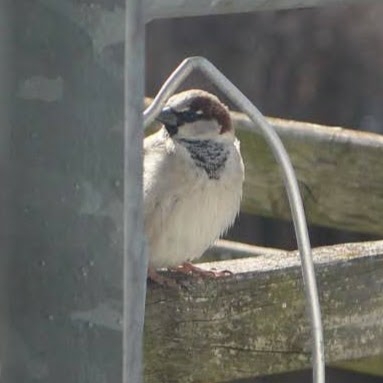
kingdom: Animalia
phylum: Chordata
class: Aves
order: Passeriformes
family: Passeridae
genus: Passer
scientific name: Passer domesticus
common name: House sparrow
